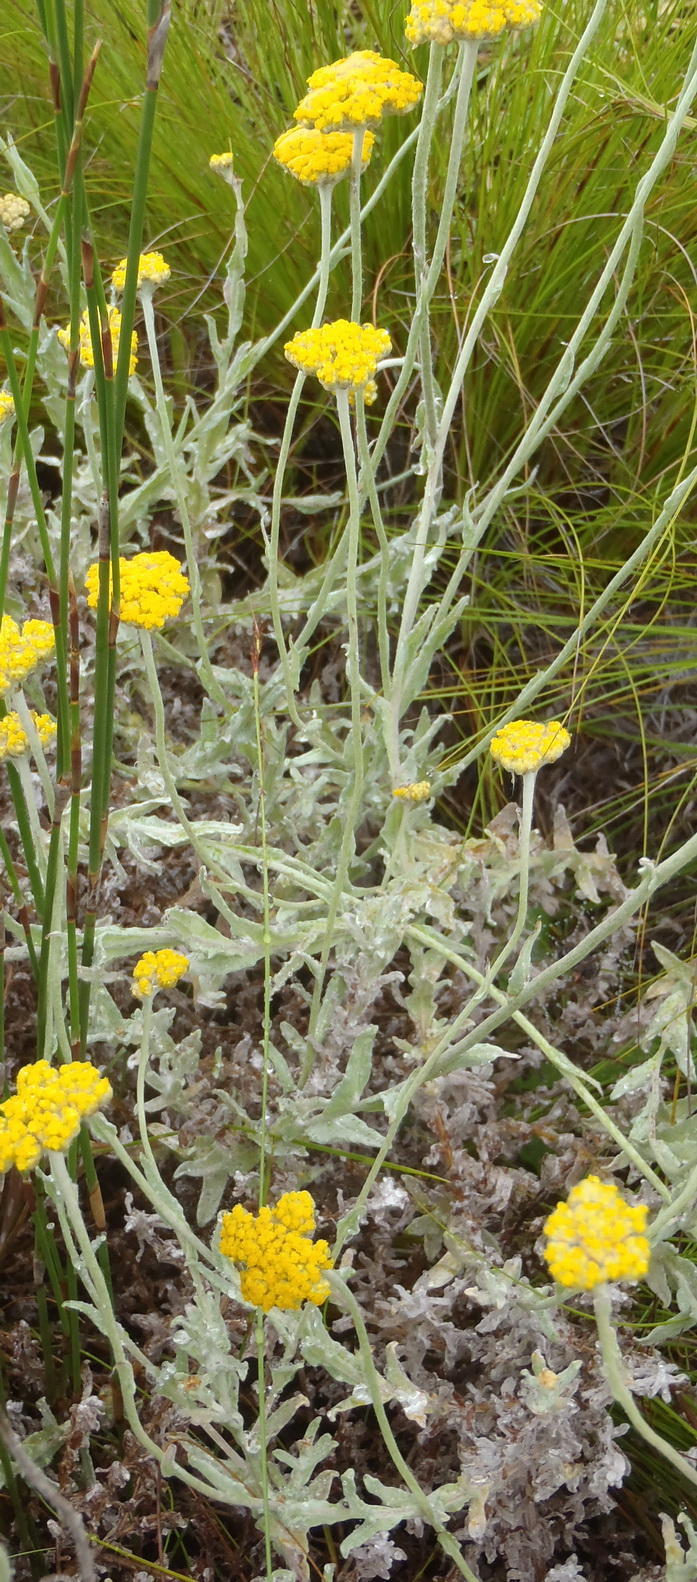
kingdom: Plantae
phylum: Tracheophyta
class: Magnoliopsida
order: Asterales
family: Asteraceae
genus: Helichrysum
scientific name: Helichrysum odoratissimum
